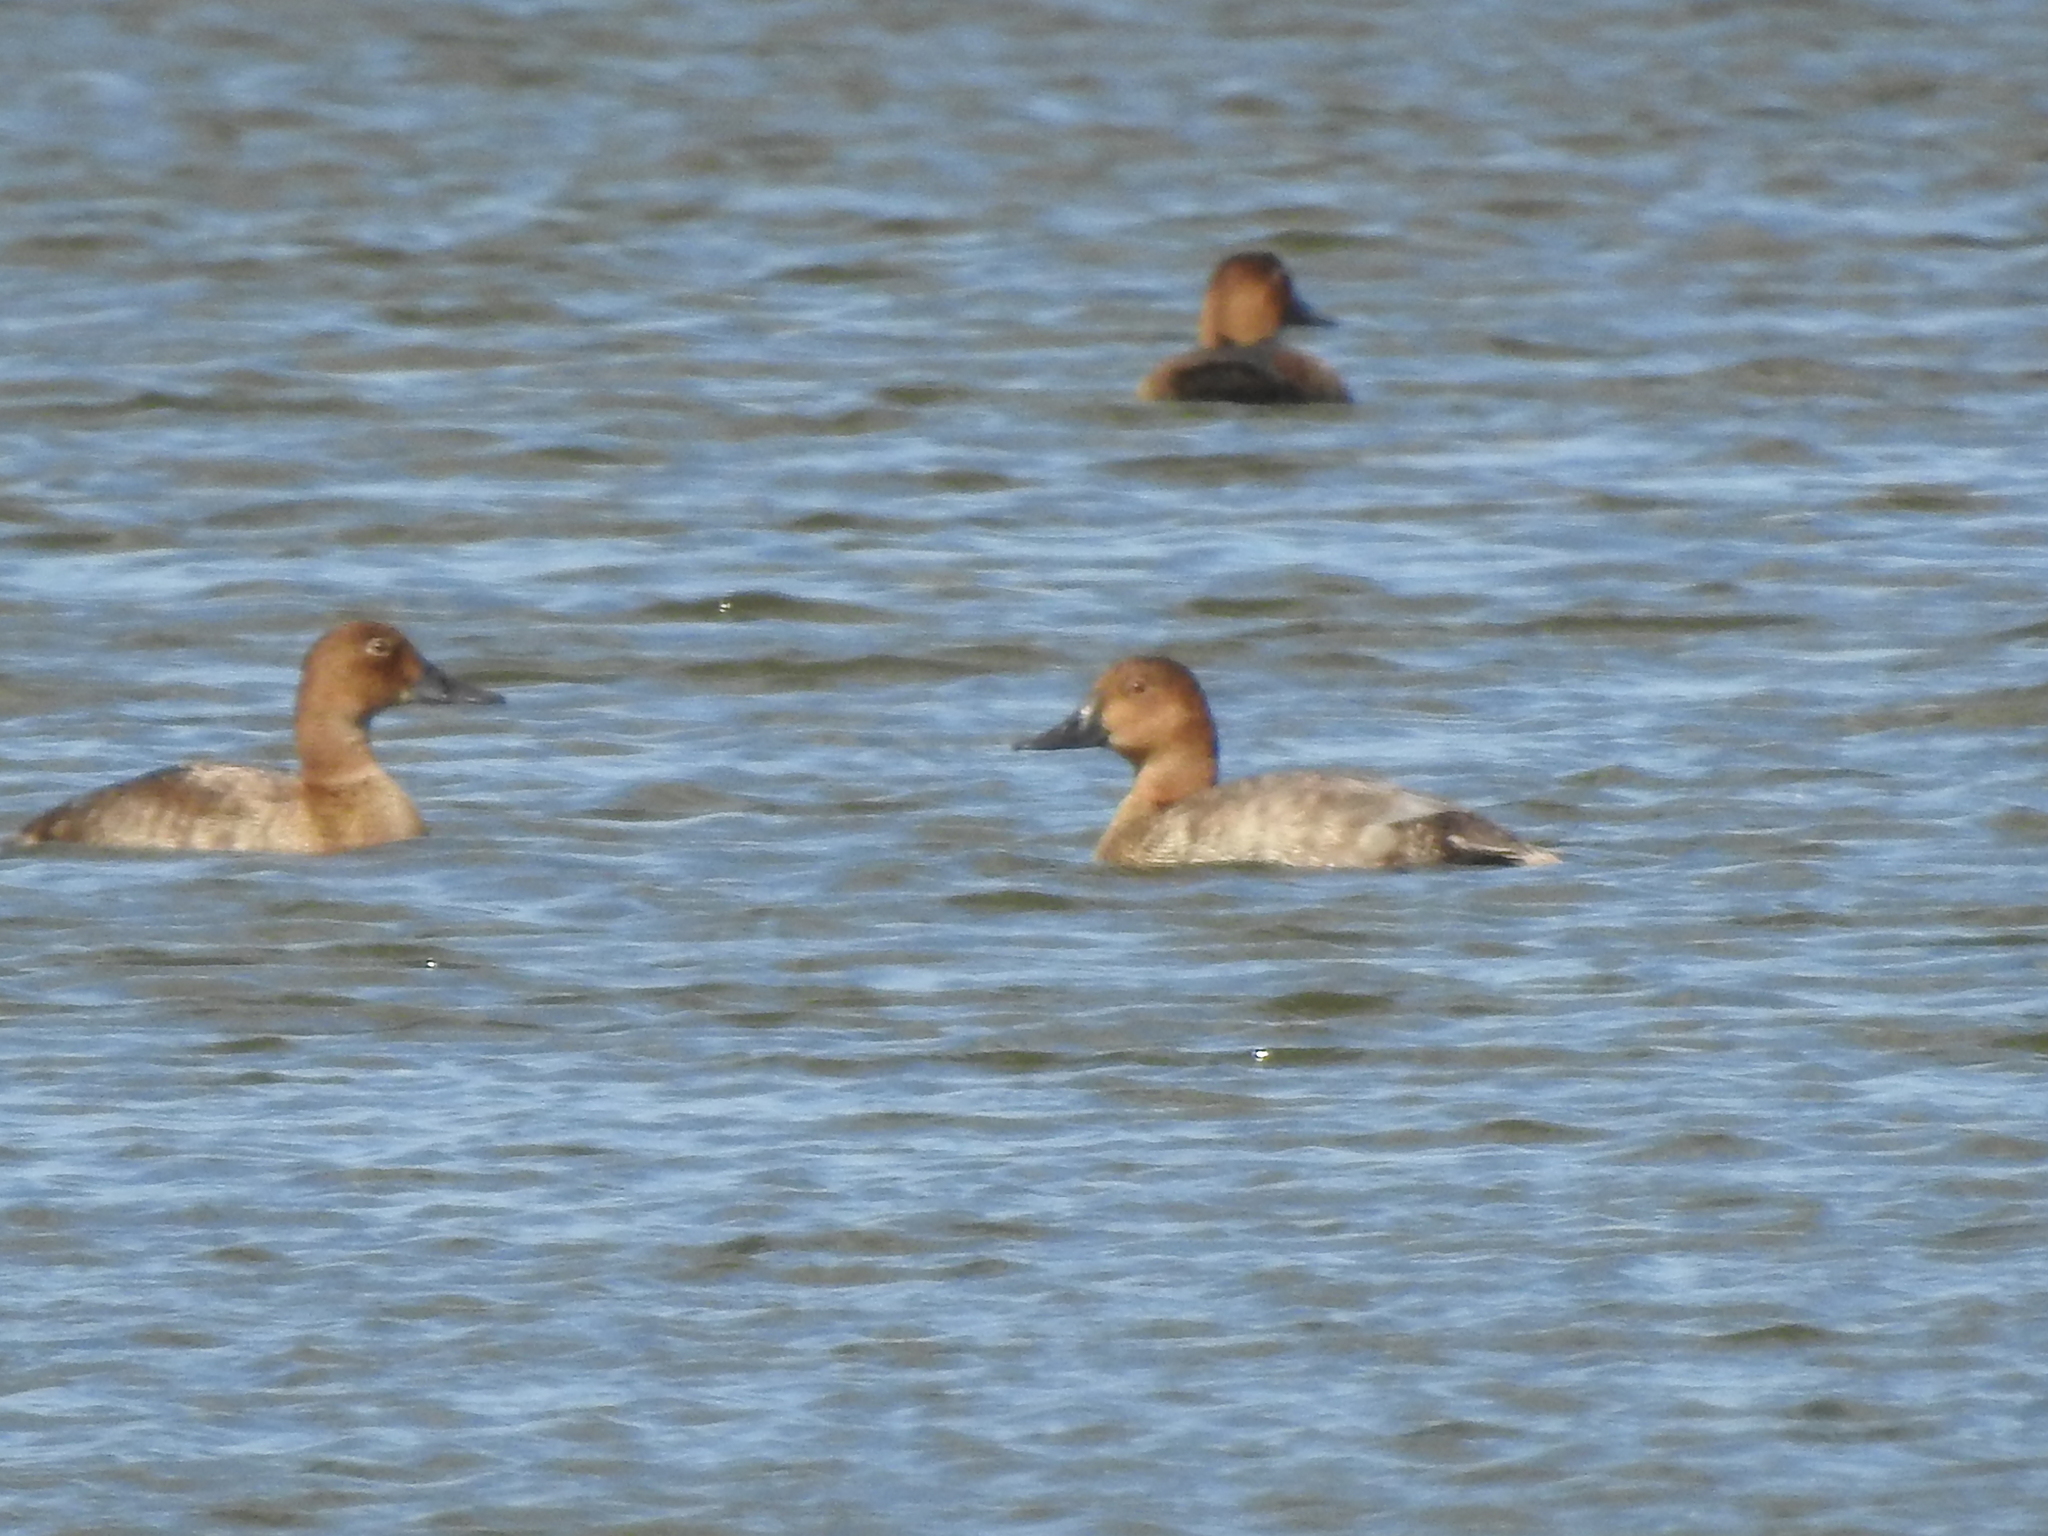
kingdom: Animalia
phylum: Chordata
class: Aves
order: Anseriformes
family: Anatidae
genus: Aythya
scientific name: Aythya ferina
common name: Common pochard
